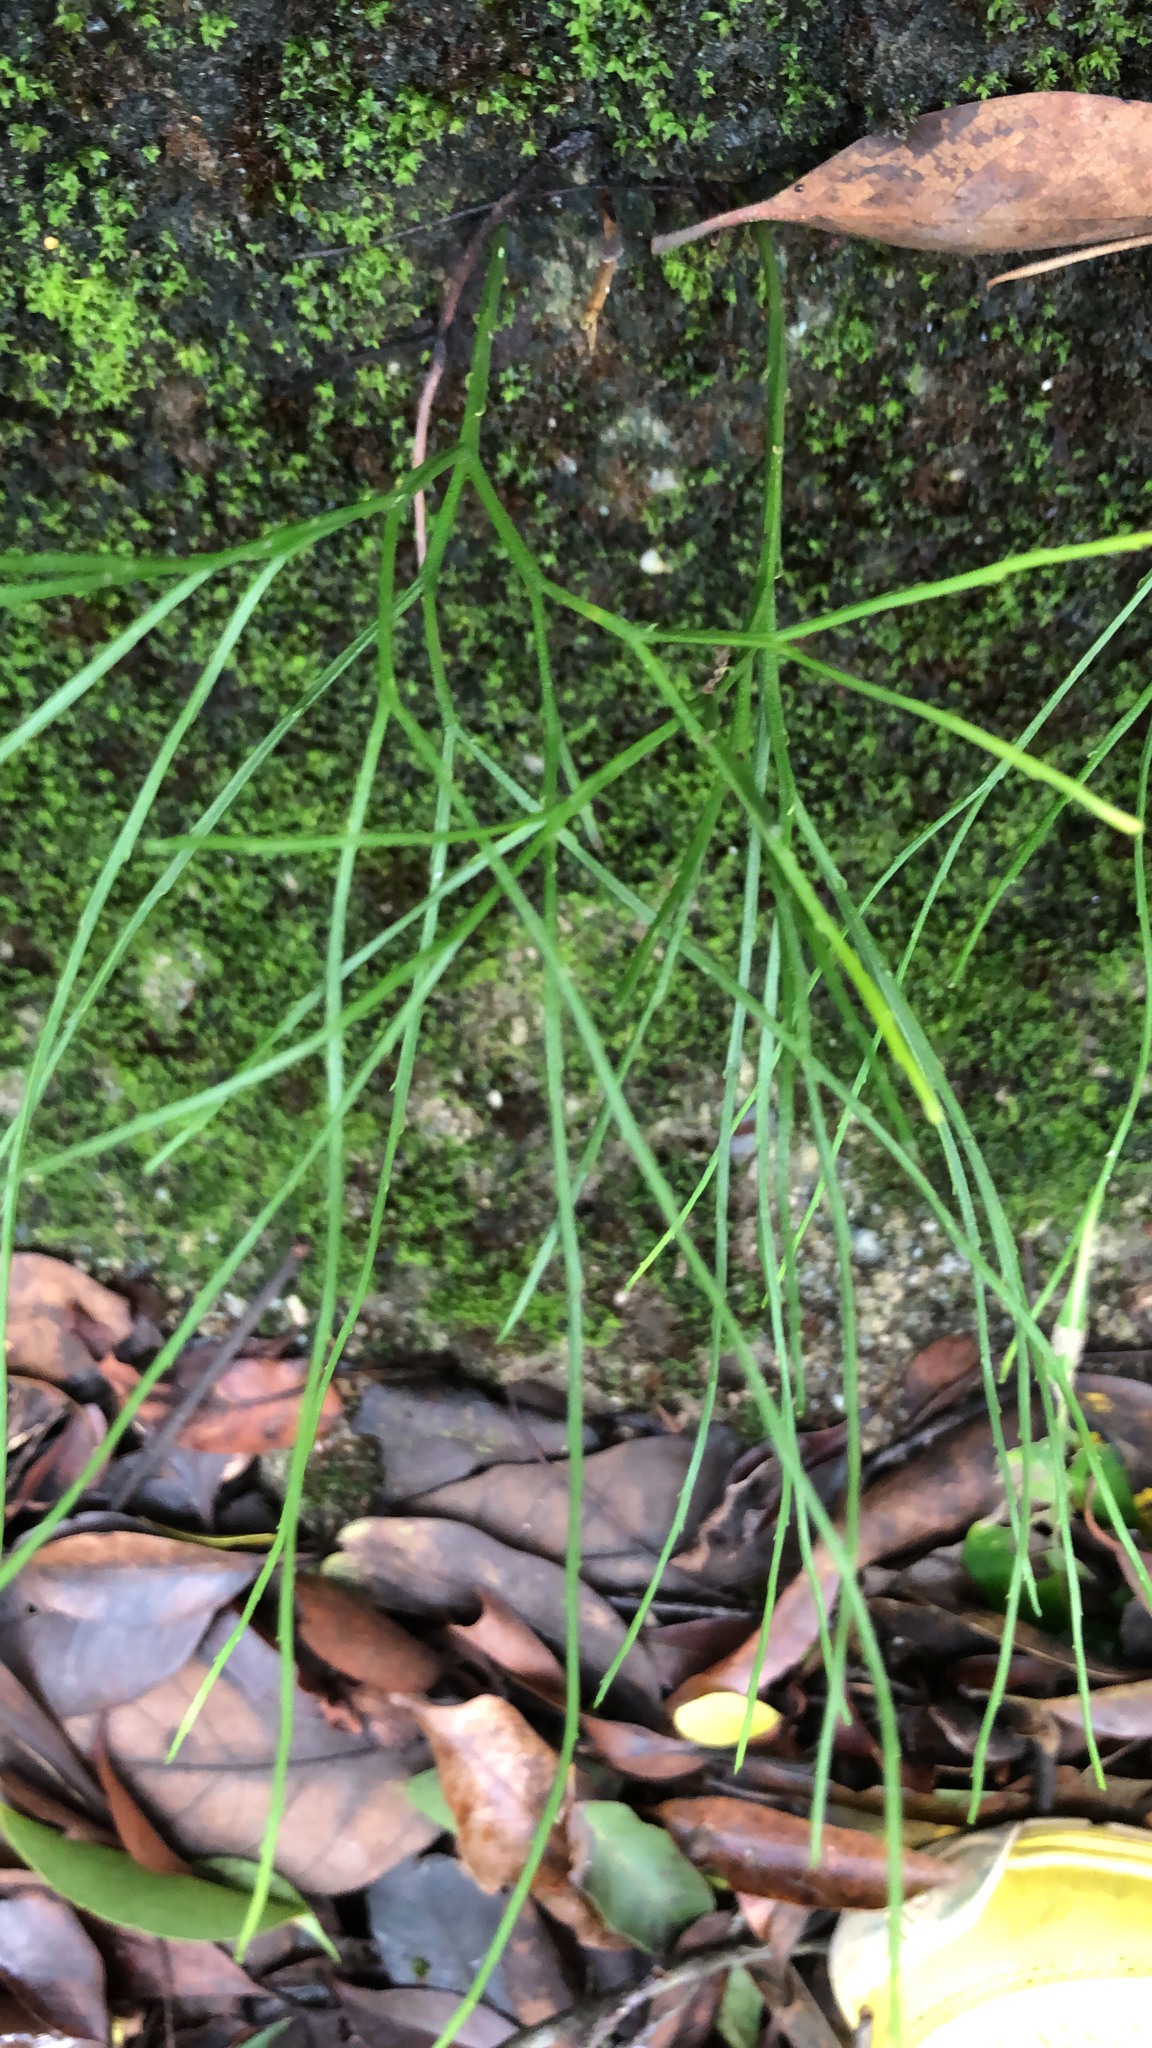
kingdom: Plantae
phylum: Tracheophyta
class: Polypodiopsida
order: Psilotales
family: Psilotaceae
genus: Psilotum
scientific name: Psilotum nudum
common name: Skeleton fork fern
